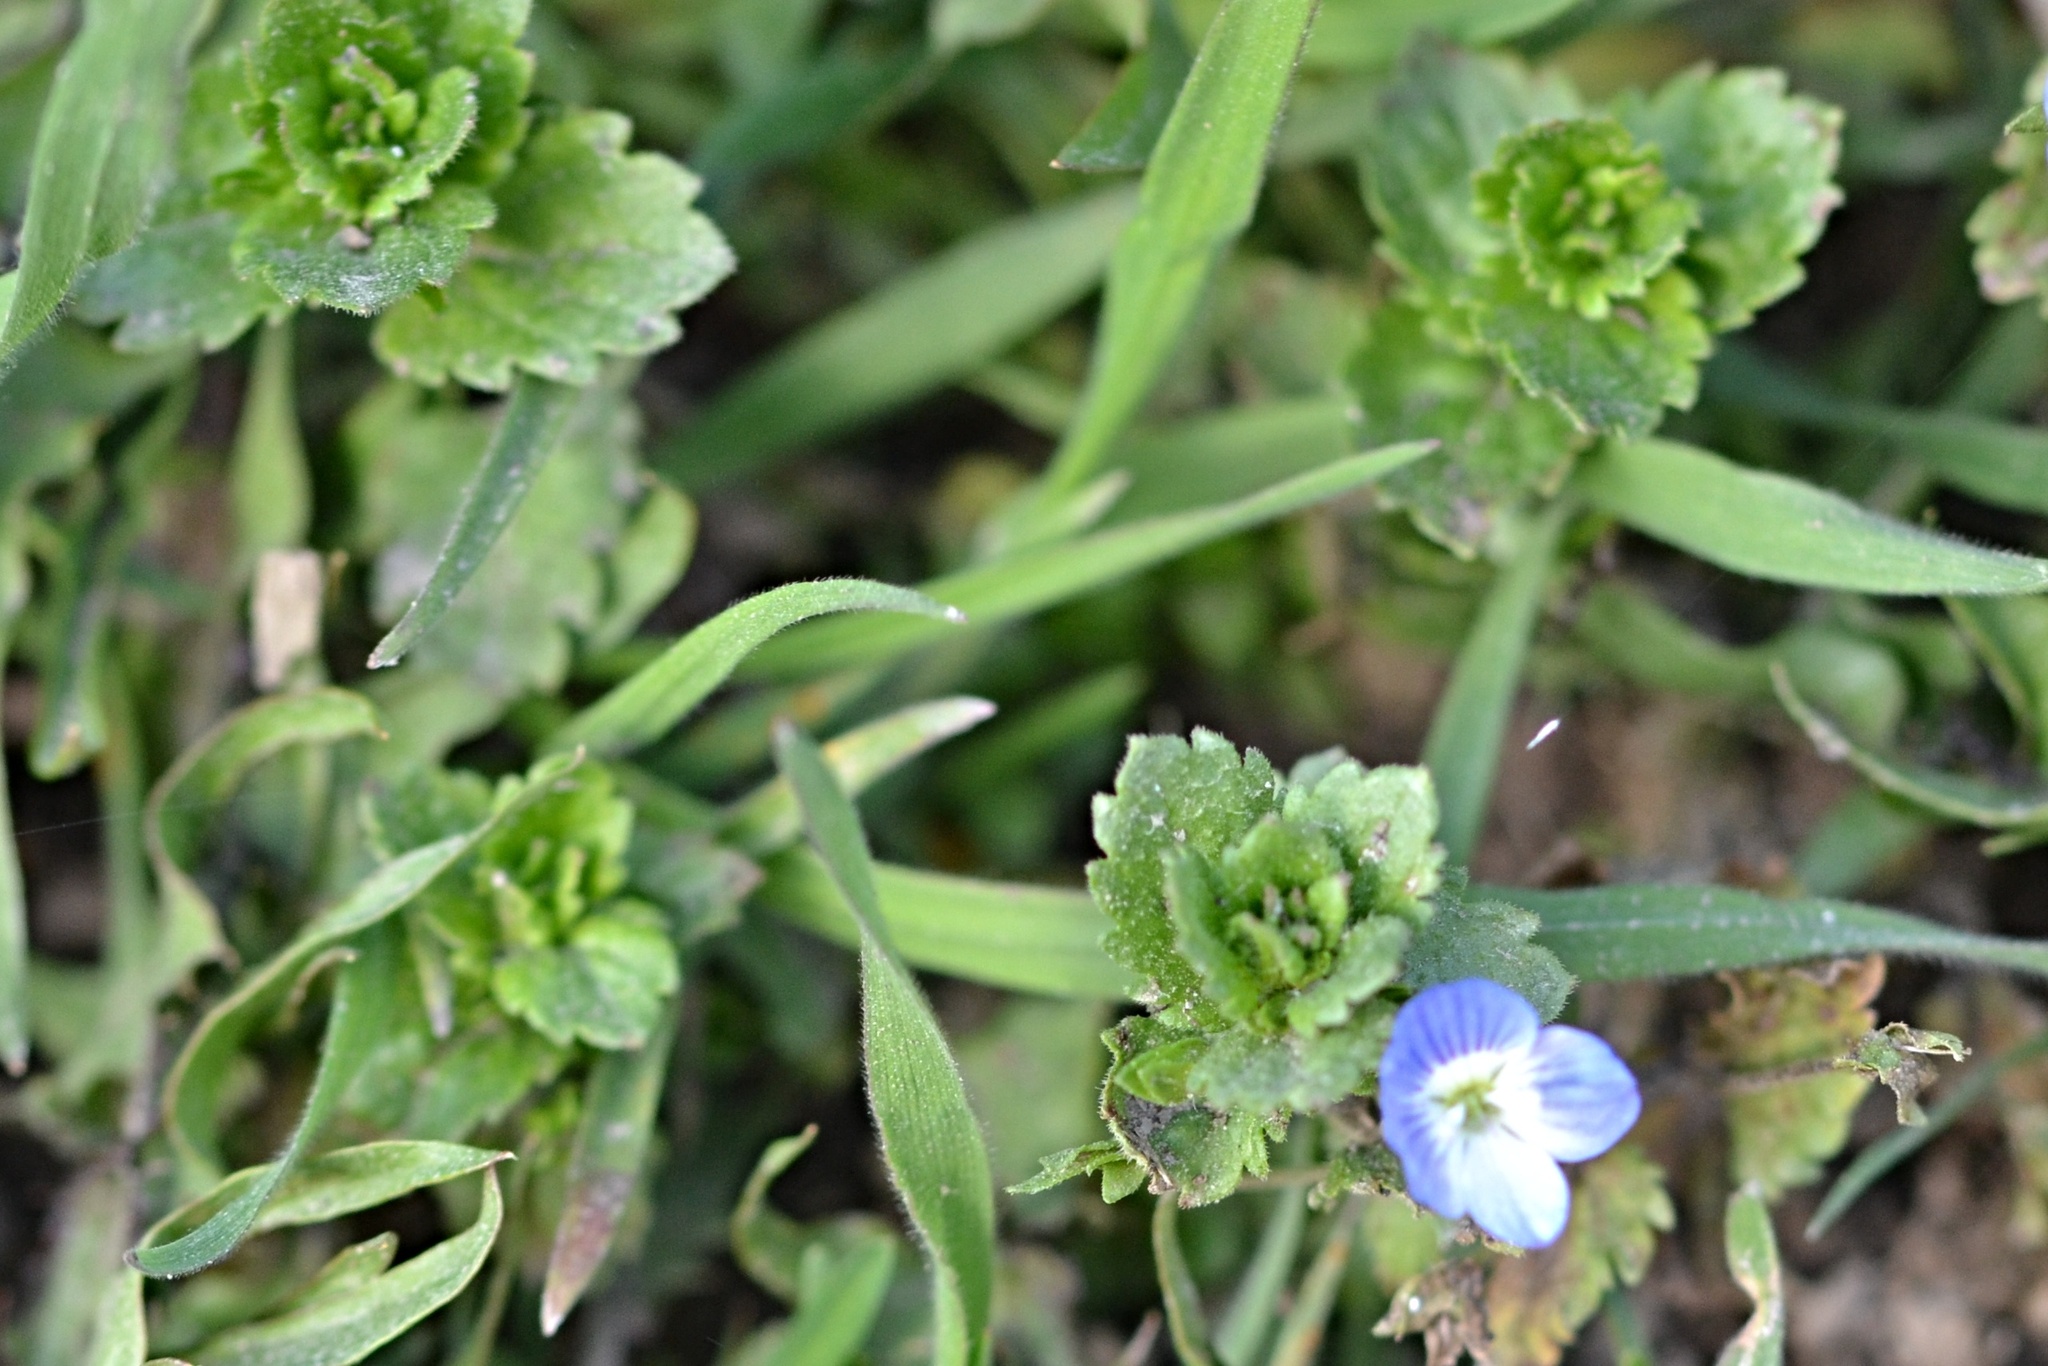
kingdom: Plantae
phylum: Tracheophyta
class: Magnoliopsida
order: Lamiales
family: Plantaginaceae
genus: Veronica
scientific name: Veronica persica
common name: Common field-speedwell
